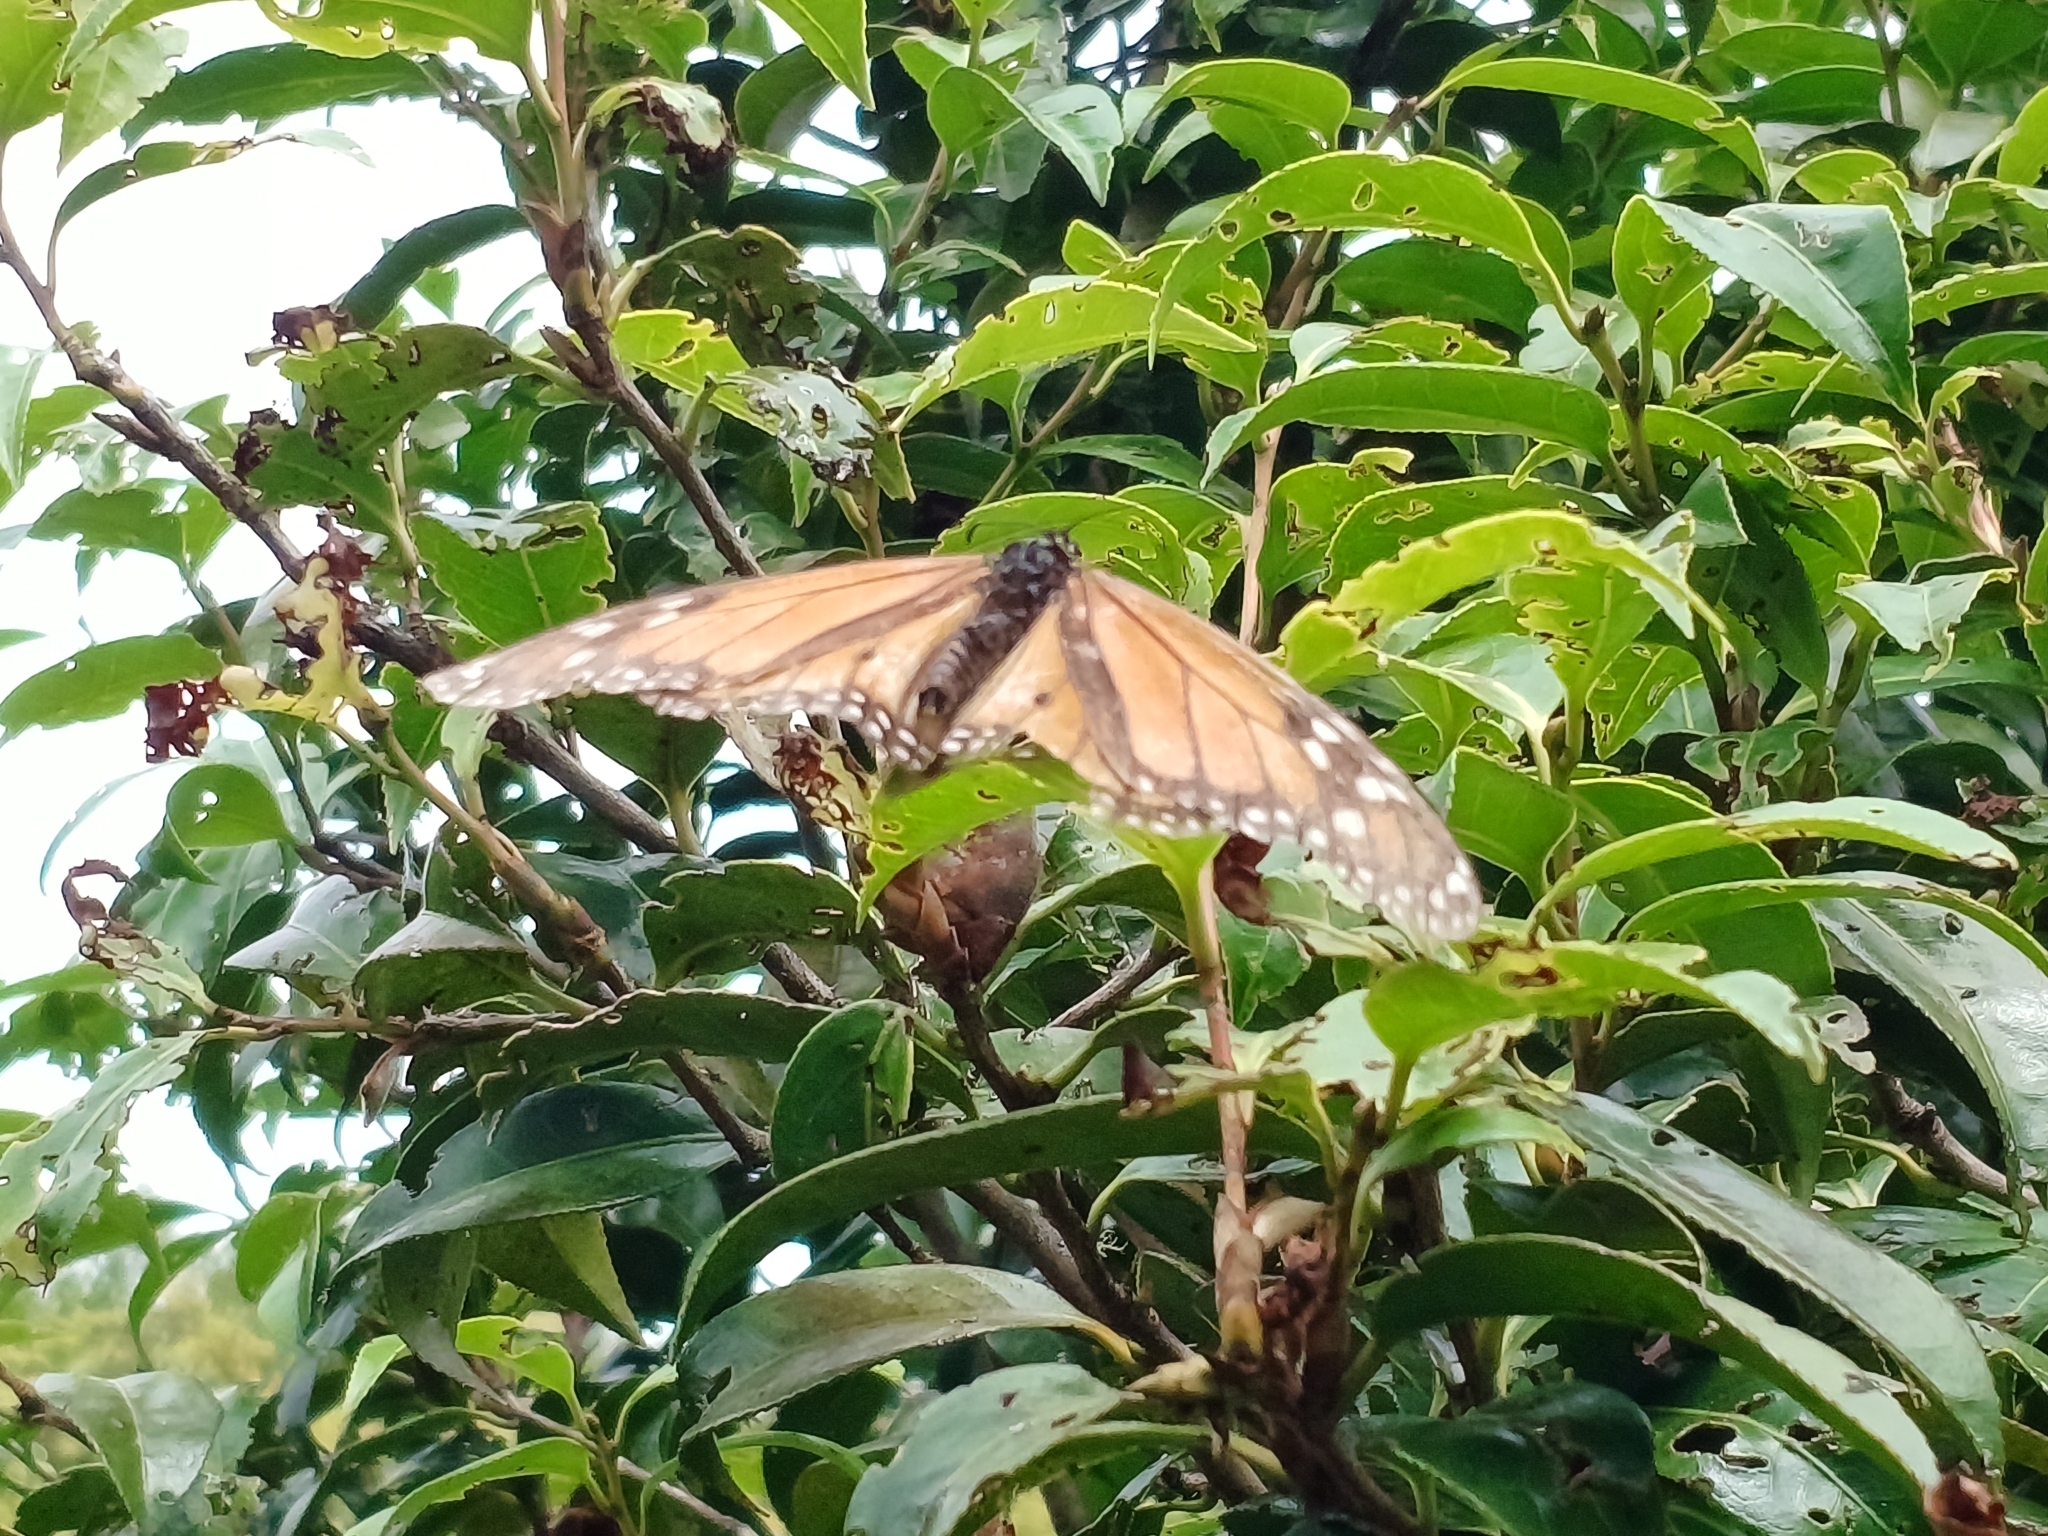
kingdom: Animalia
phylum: Arthropoda
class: Insecta
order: Lepidoptera
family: Nymphalidae
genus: Danaus
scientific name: Danaus plexippus
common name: Monarch
